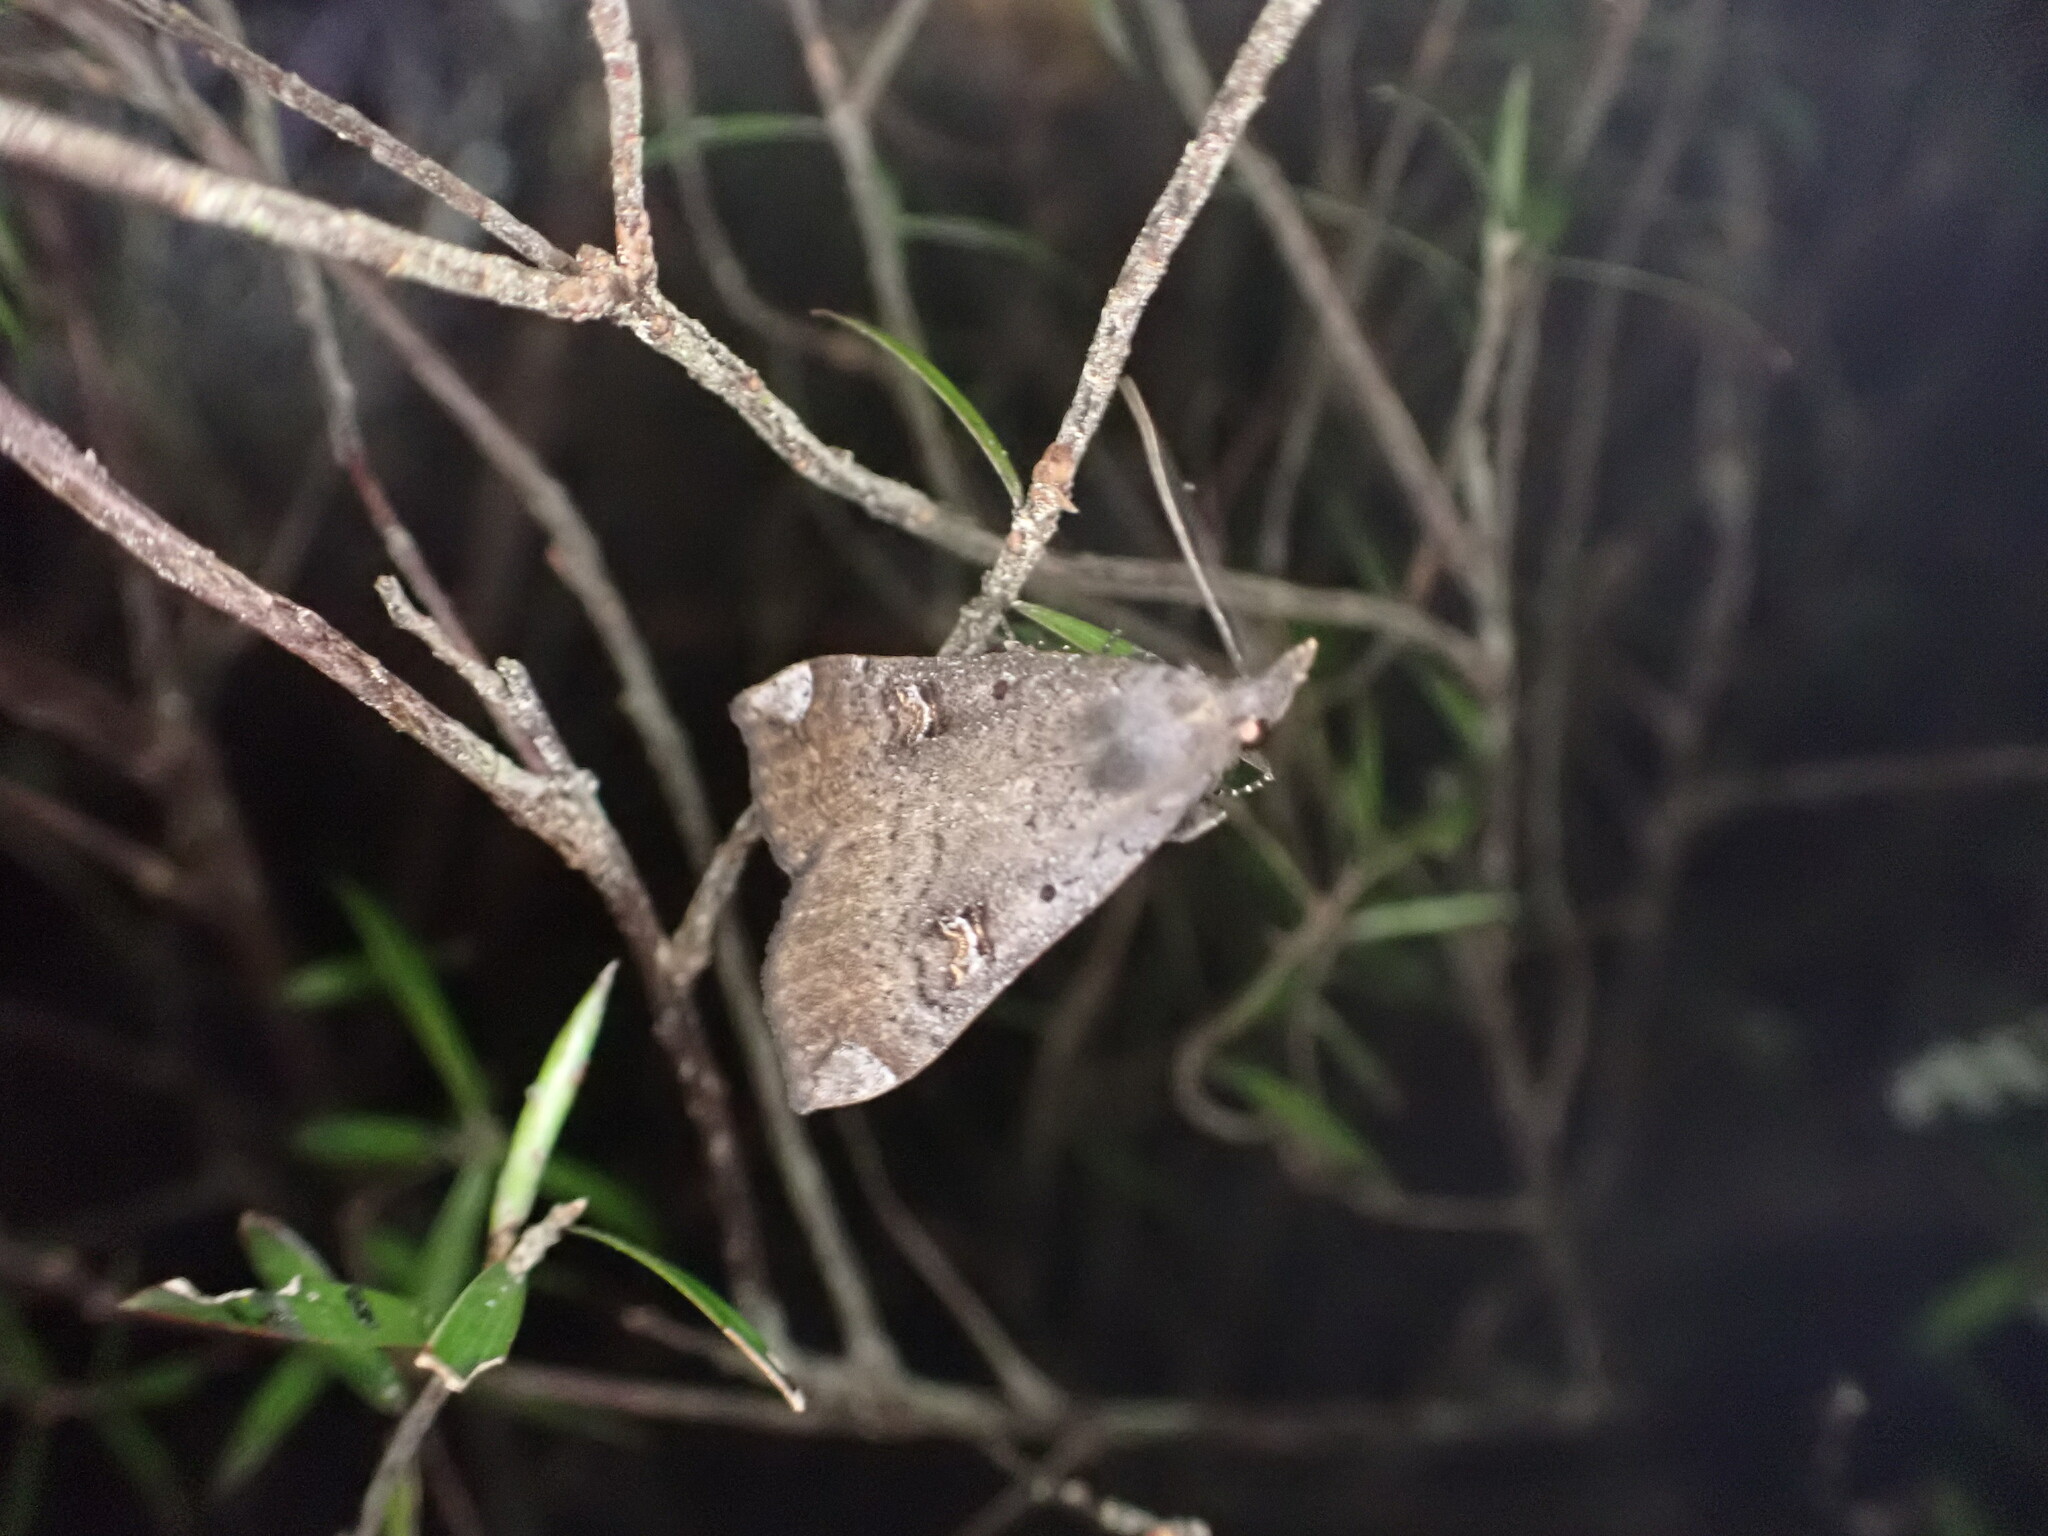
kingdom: Animalia
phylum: Arthropoda
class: Insecta
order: Lepidoptera
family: Erebidae
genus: Rhapsa
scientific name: Rhapsa scotosialis
